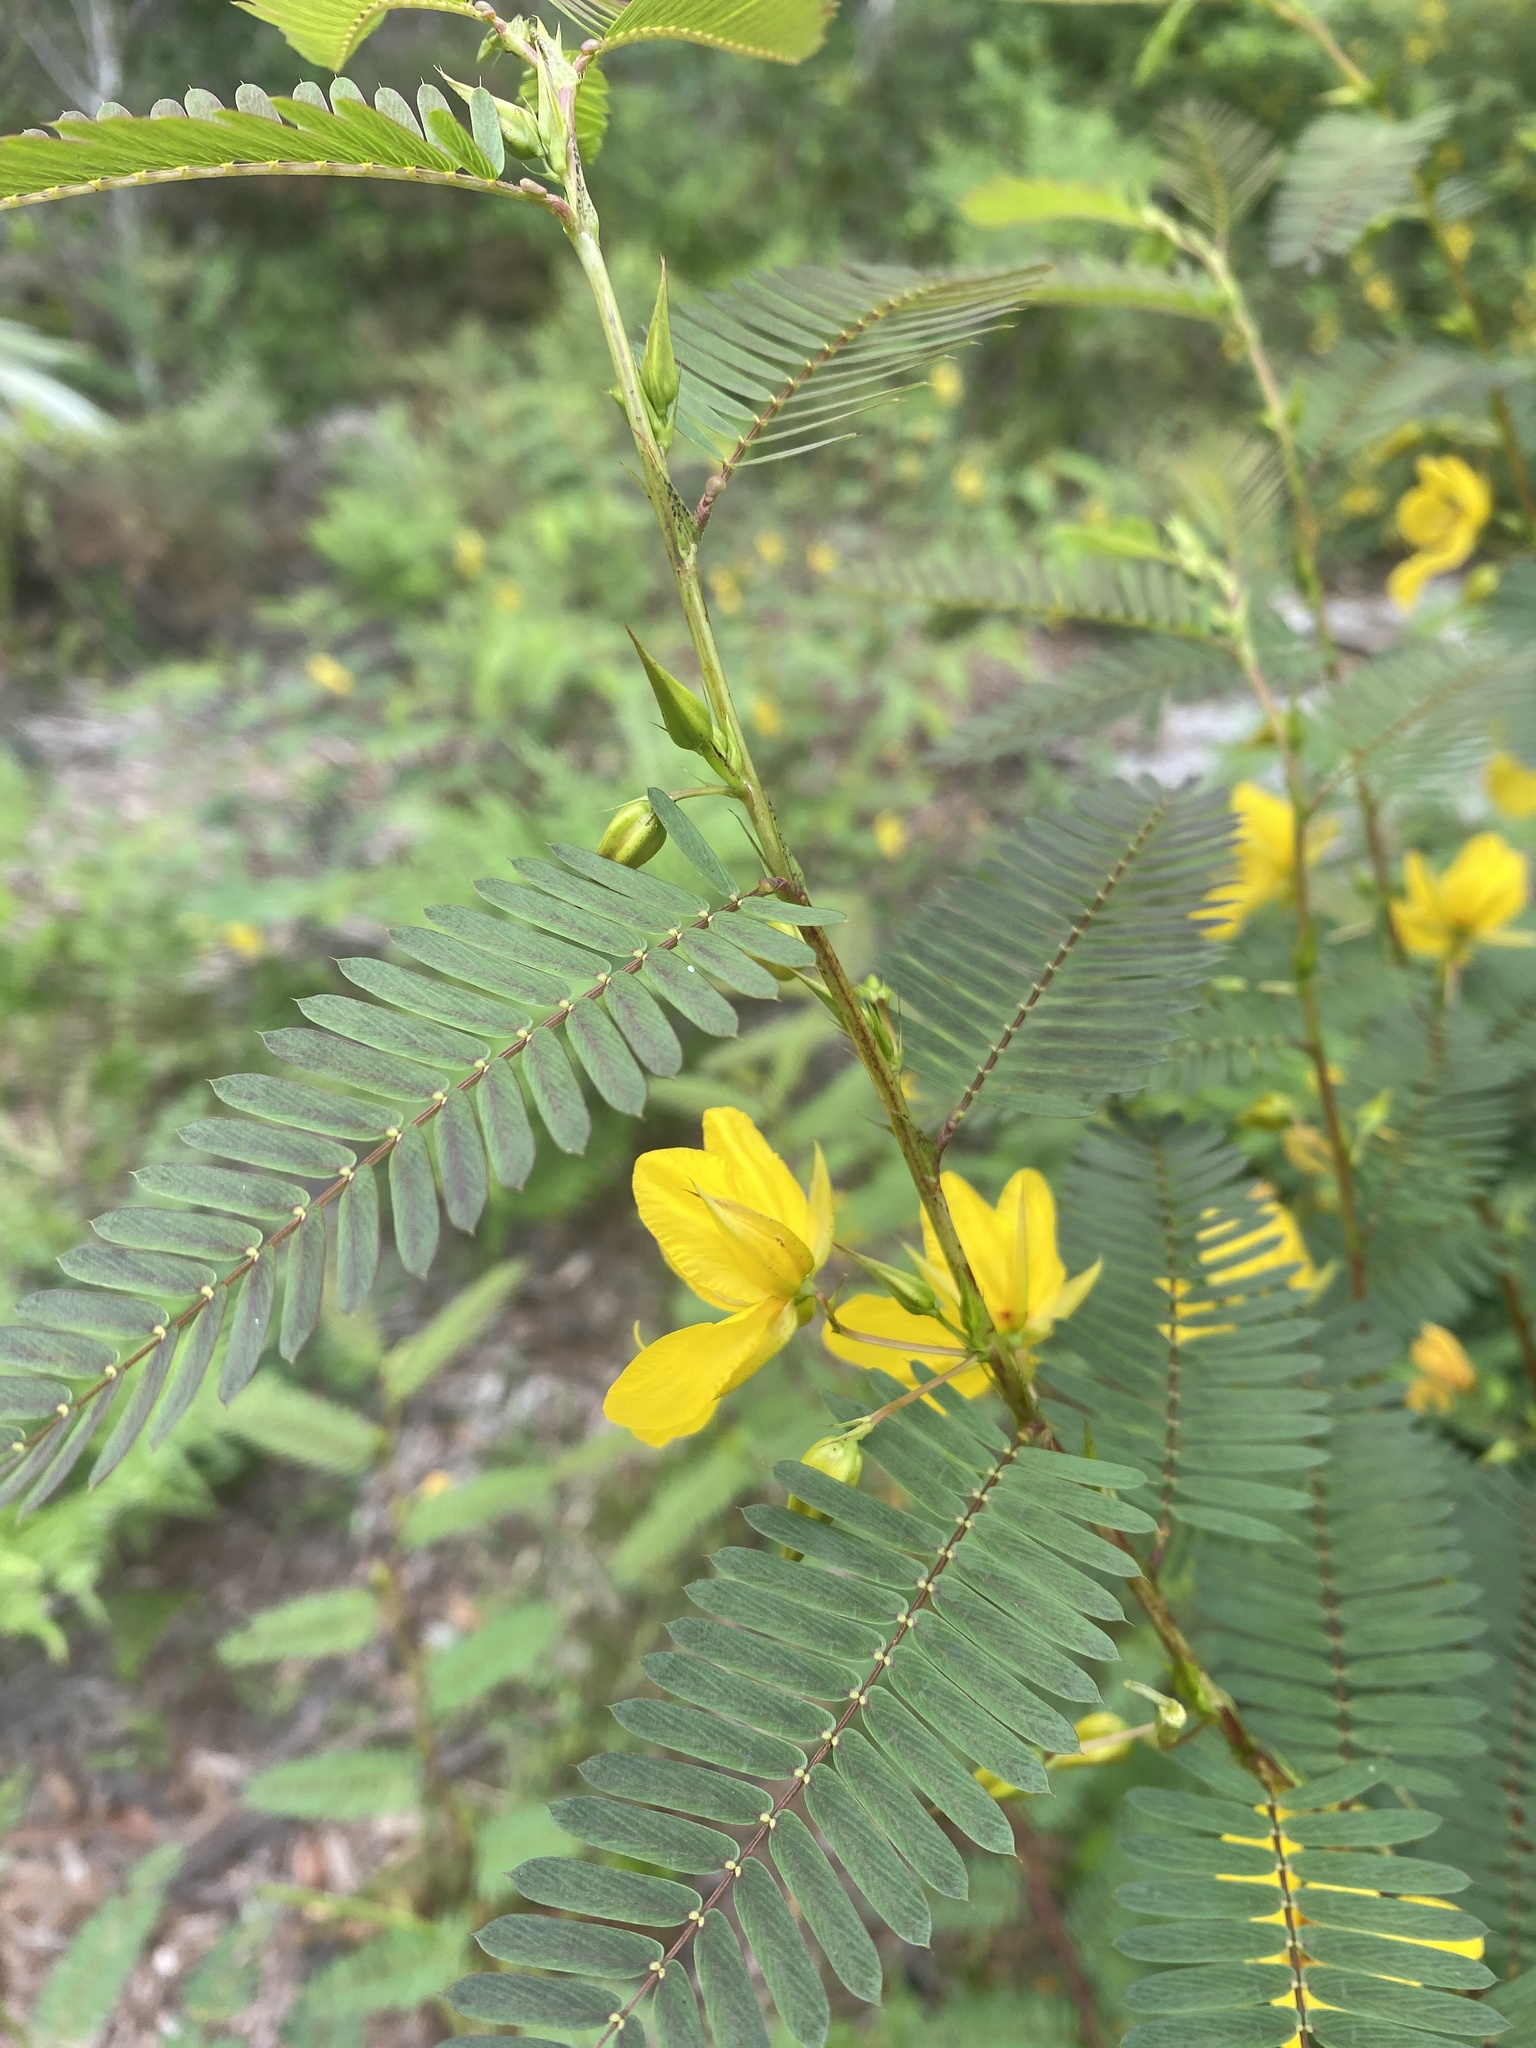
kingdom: Plantae
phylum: Tracheophyta
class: Magnoliopsida
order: Fabales
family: Fabaceae
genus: Chamaecrista
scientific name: Chamaecrista fasciculata
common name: Golden cassia
